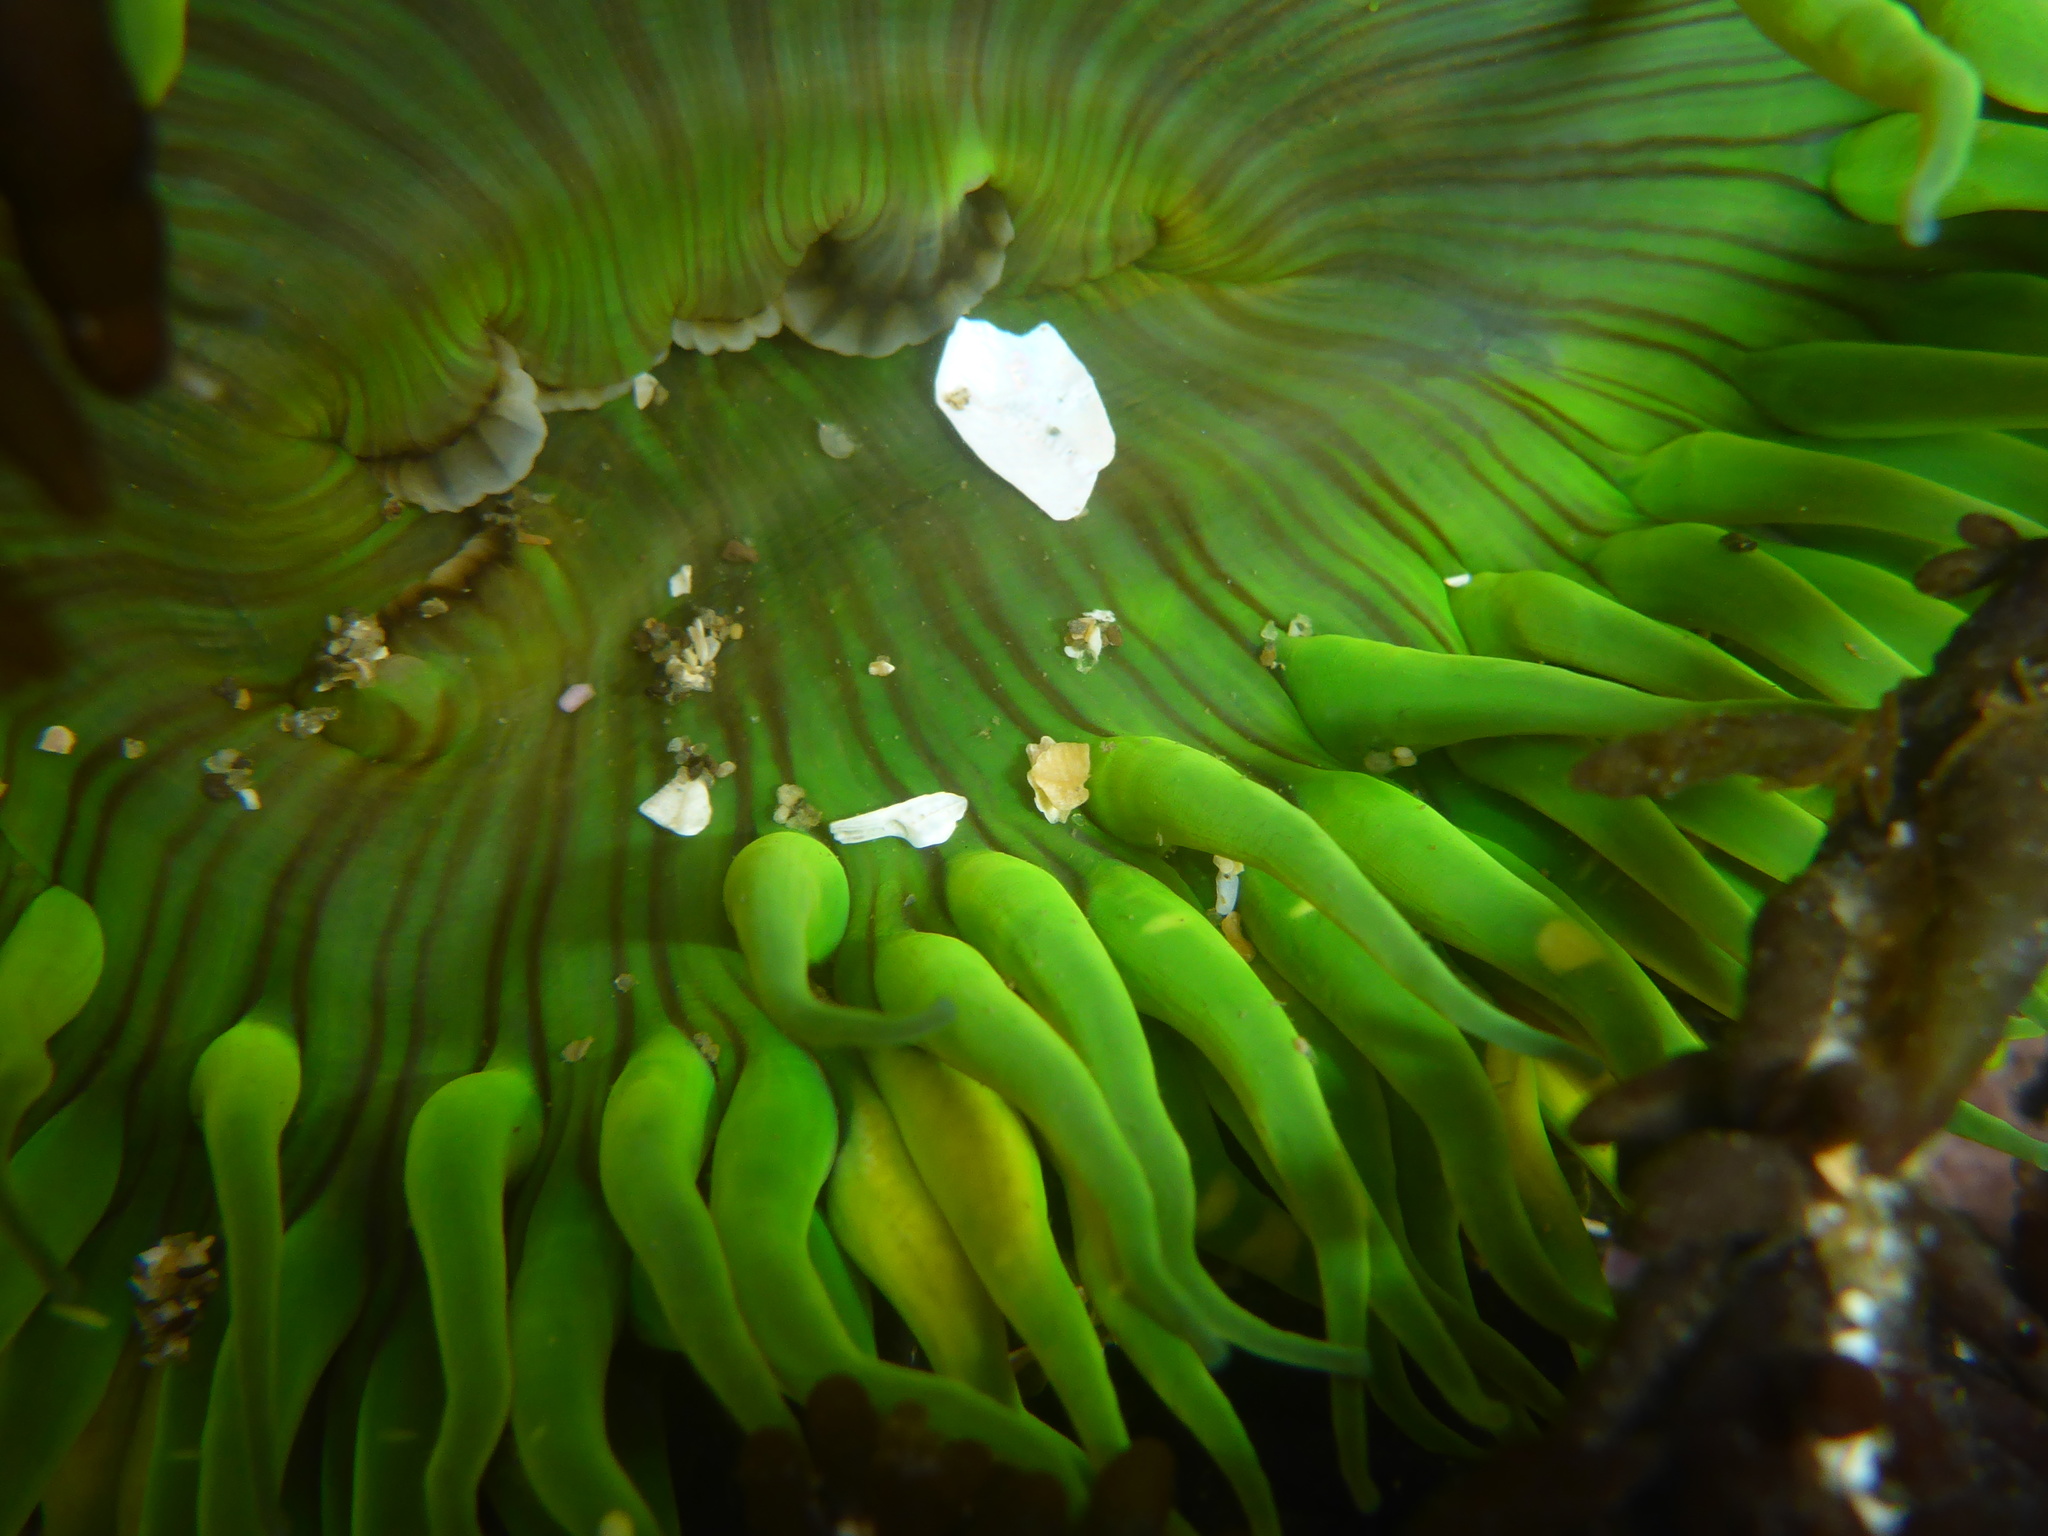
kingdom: Animalia
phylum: Cnidaria
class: Anthozoa
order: Actiniaria
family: Actiniidae
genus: Anthopleura
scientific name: Anthopleura sola
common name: Sun anemone
